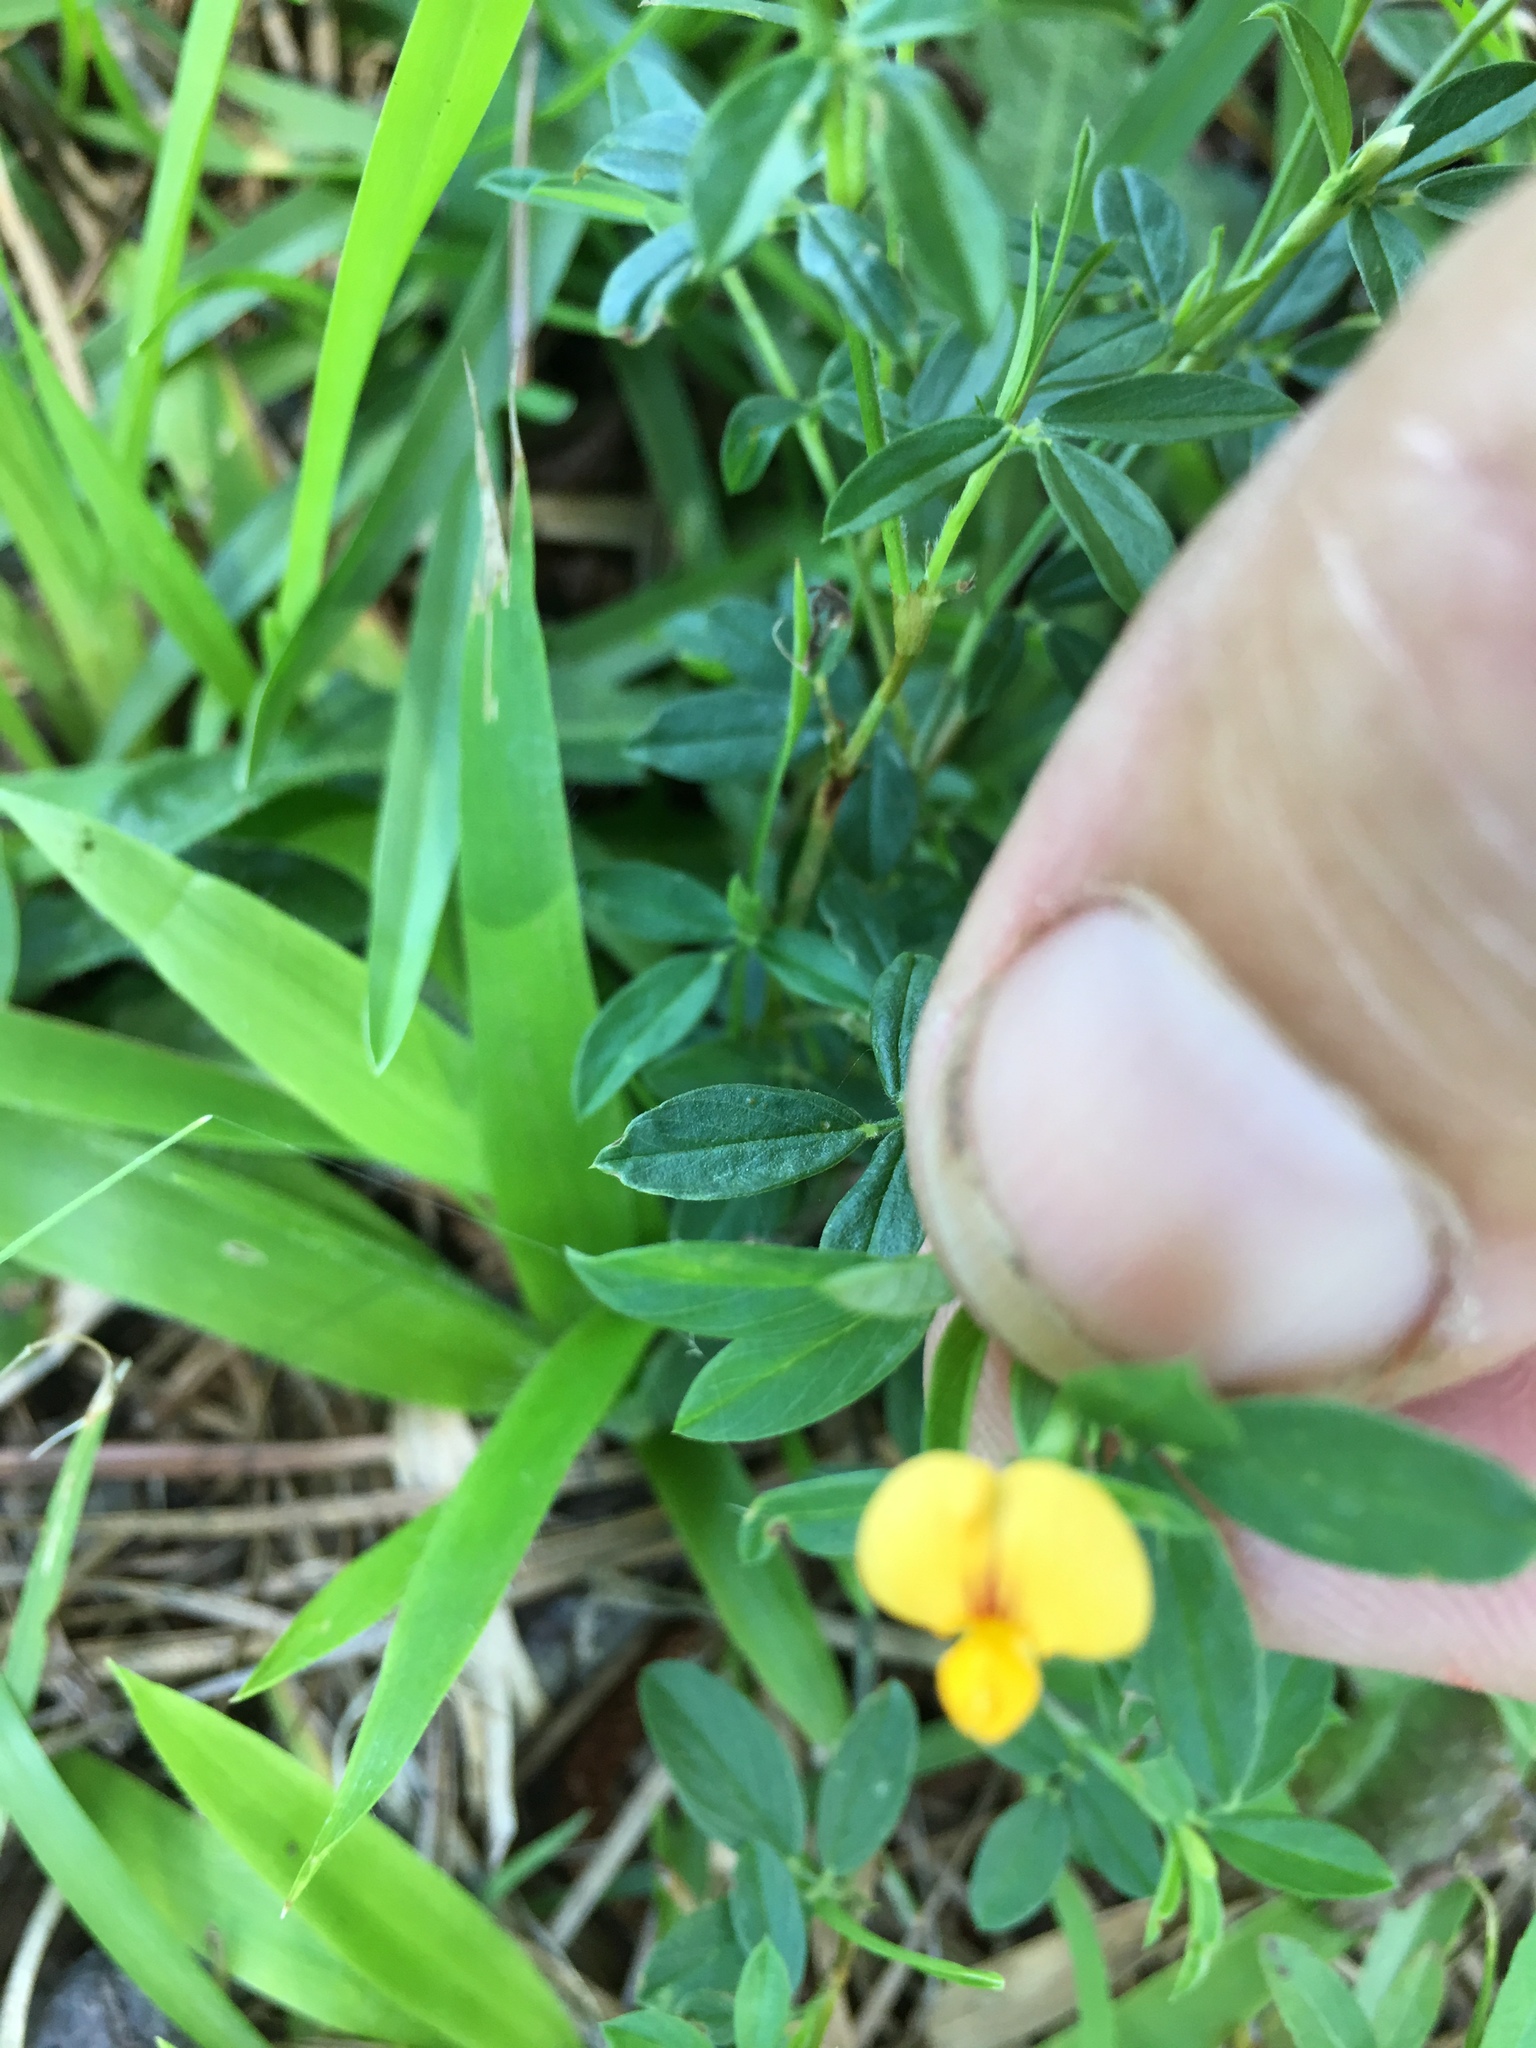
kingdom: Plantae
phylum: Tracheophyta
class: Magnoliopsida
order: Fabales
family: Fabaceae
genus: Stylosanthes
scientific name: Stylosanthes biflora
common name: Two-flower pencil-flower
